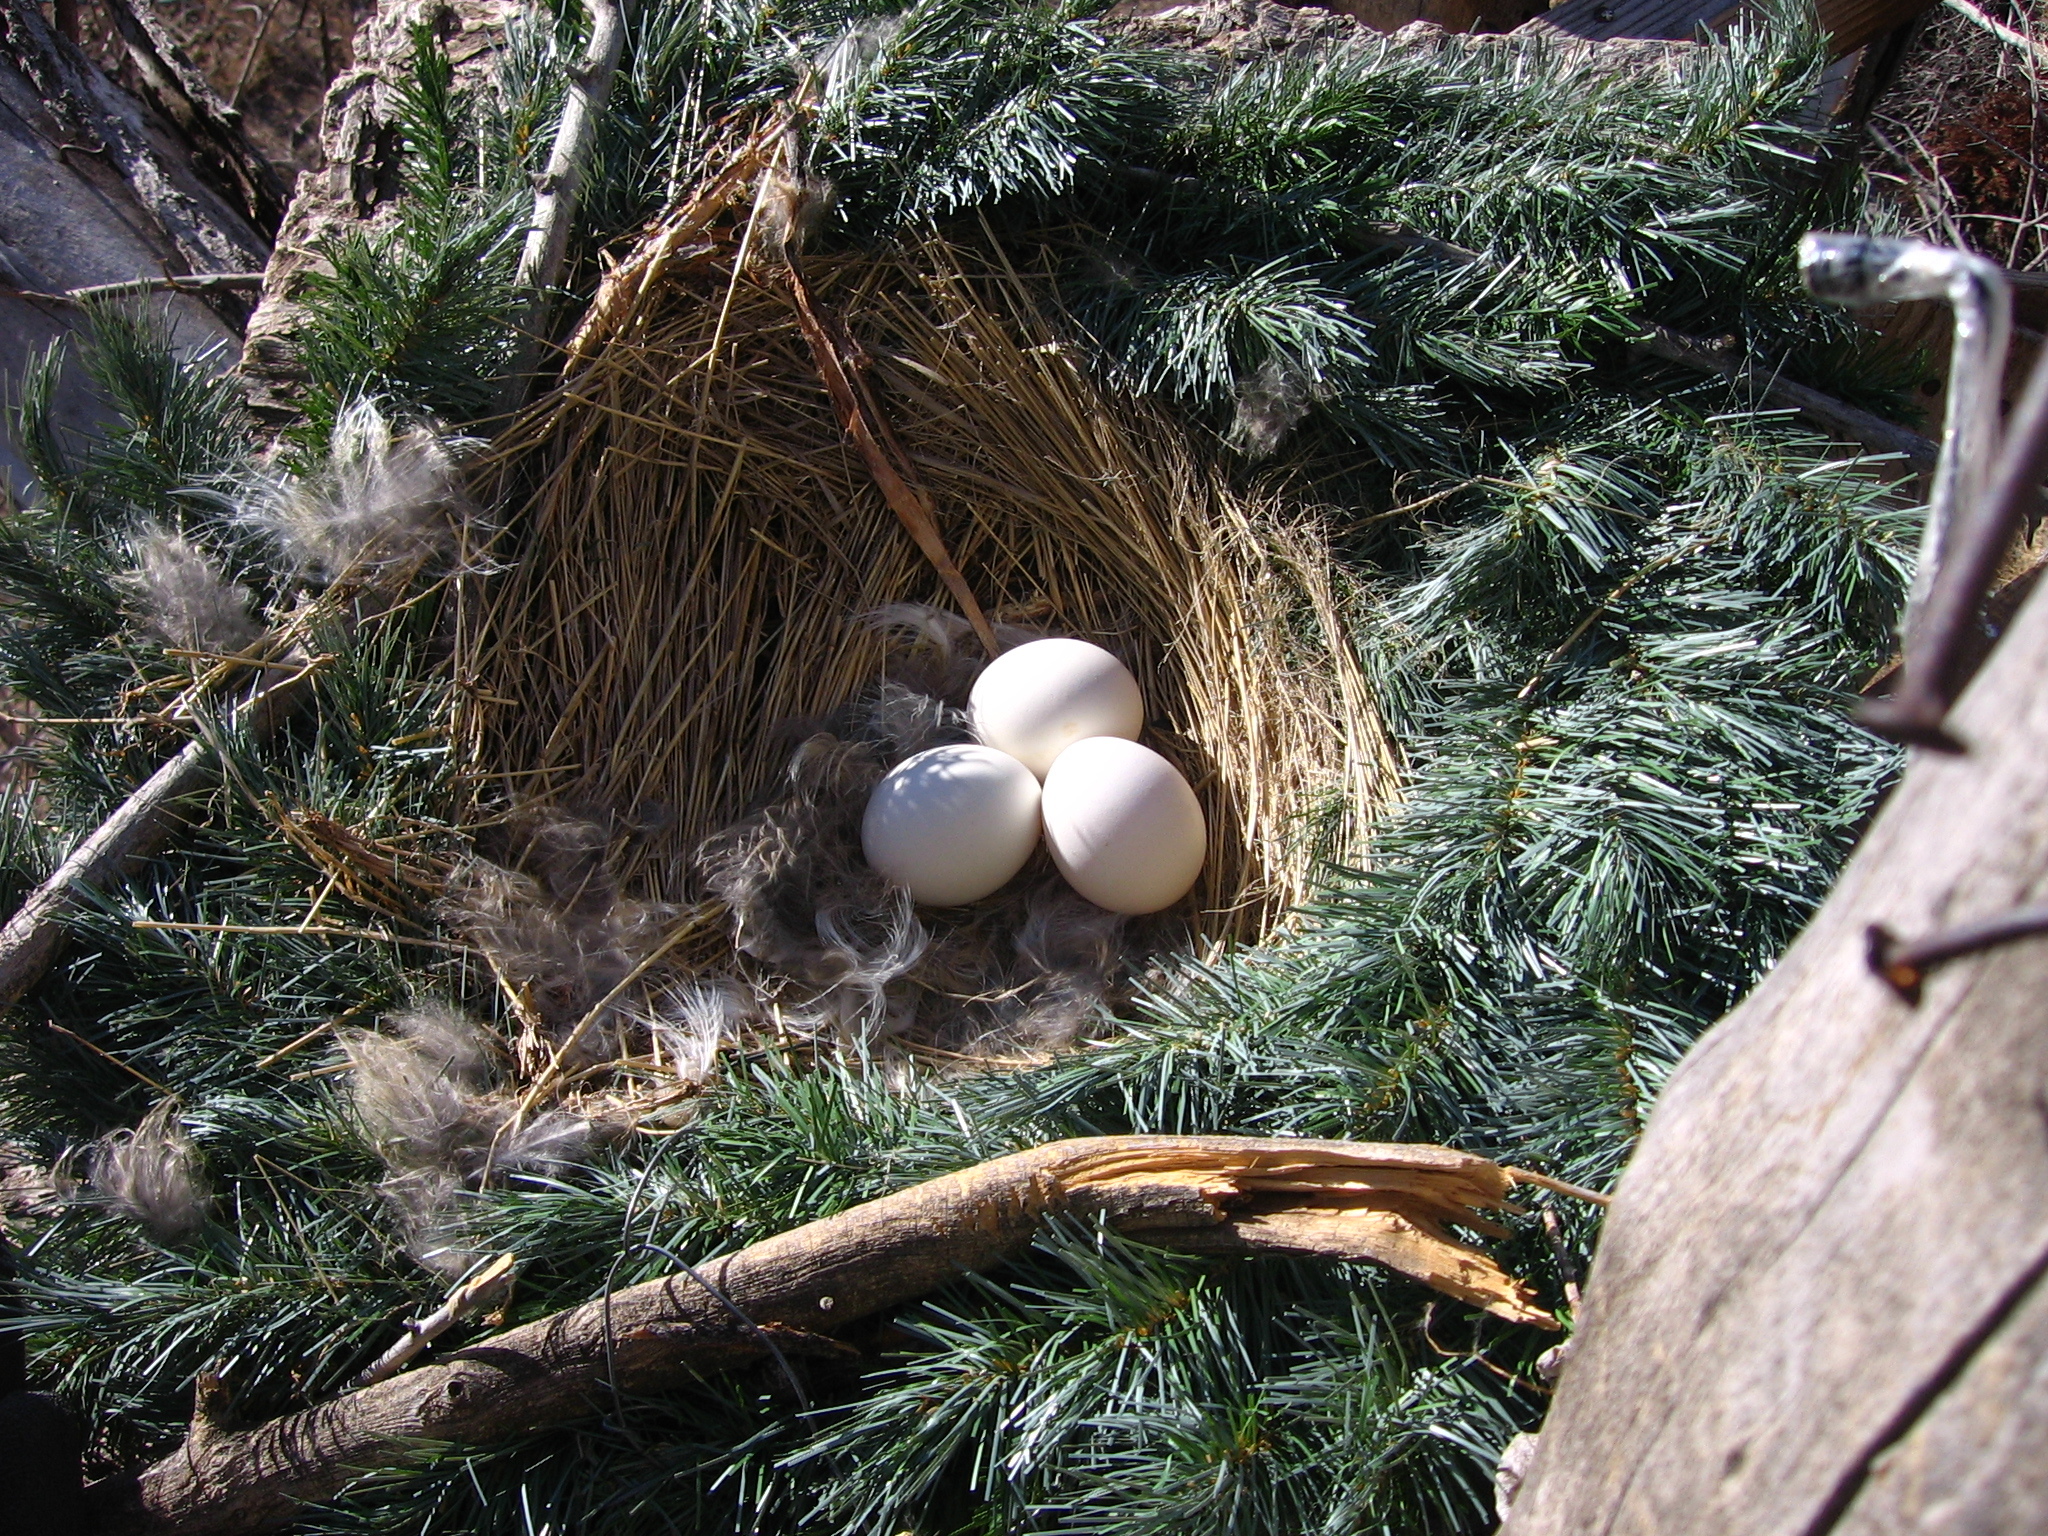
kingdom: Animalia
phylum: Chordata
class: Aves
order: Strigiformes
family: Strigidae
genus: Bubo
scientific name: Bubo virginianus
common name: Great horned owl
